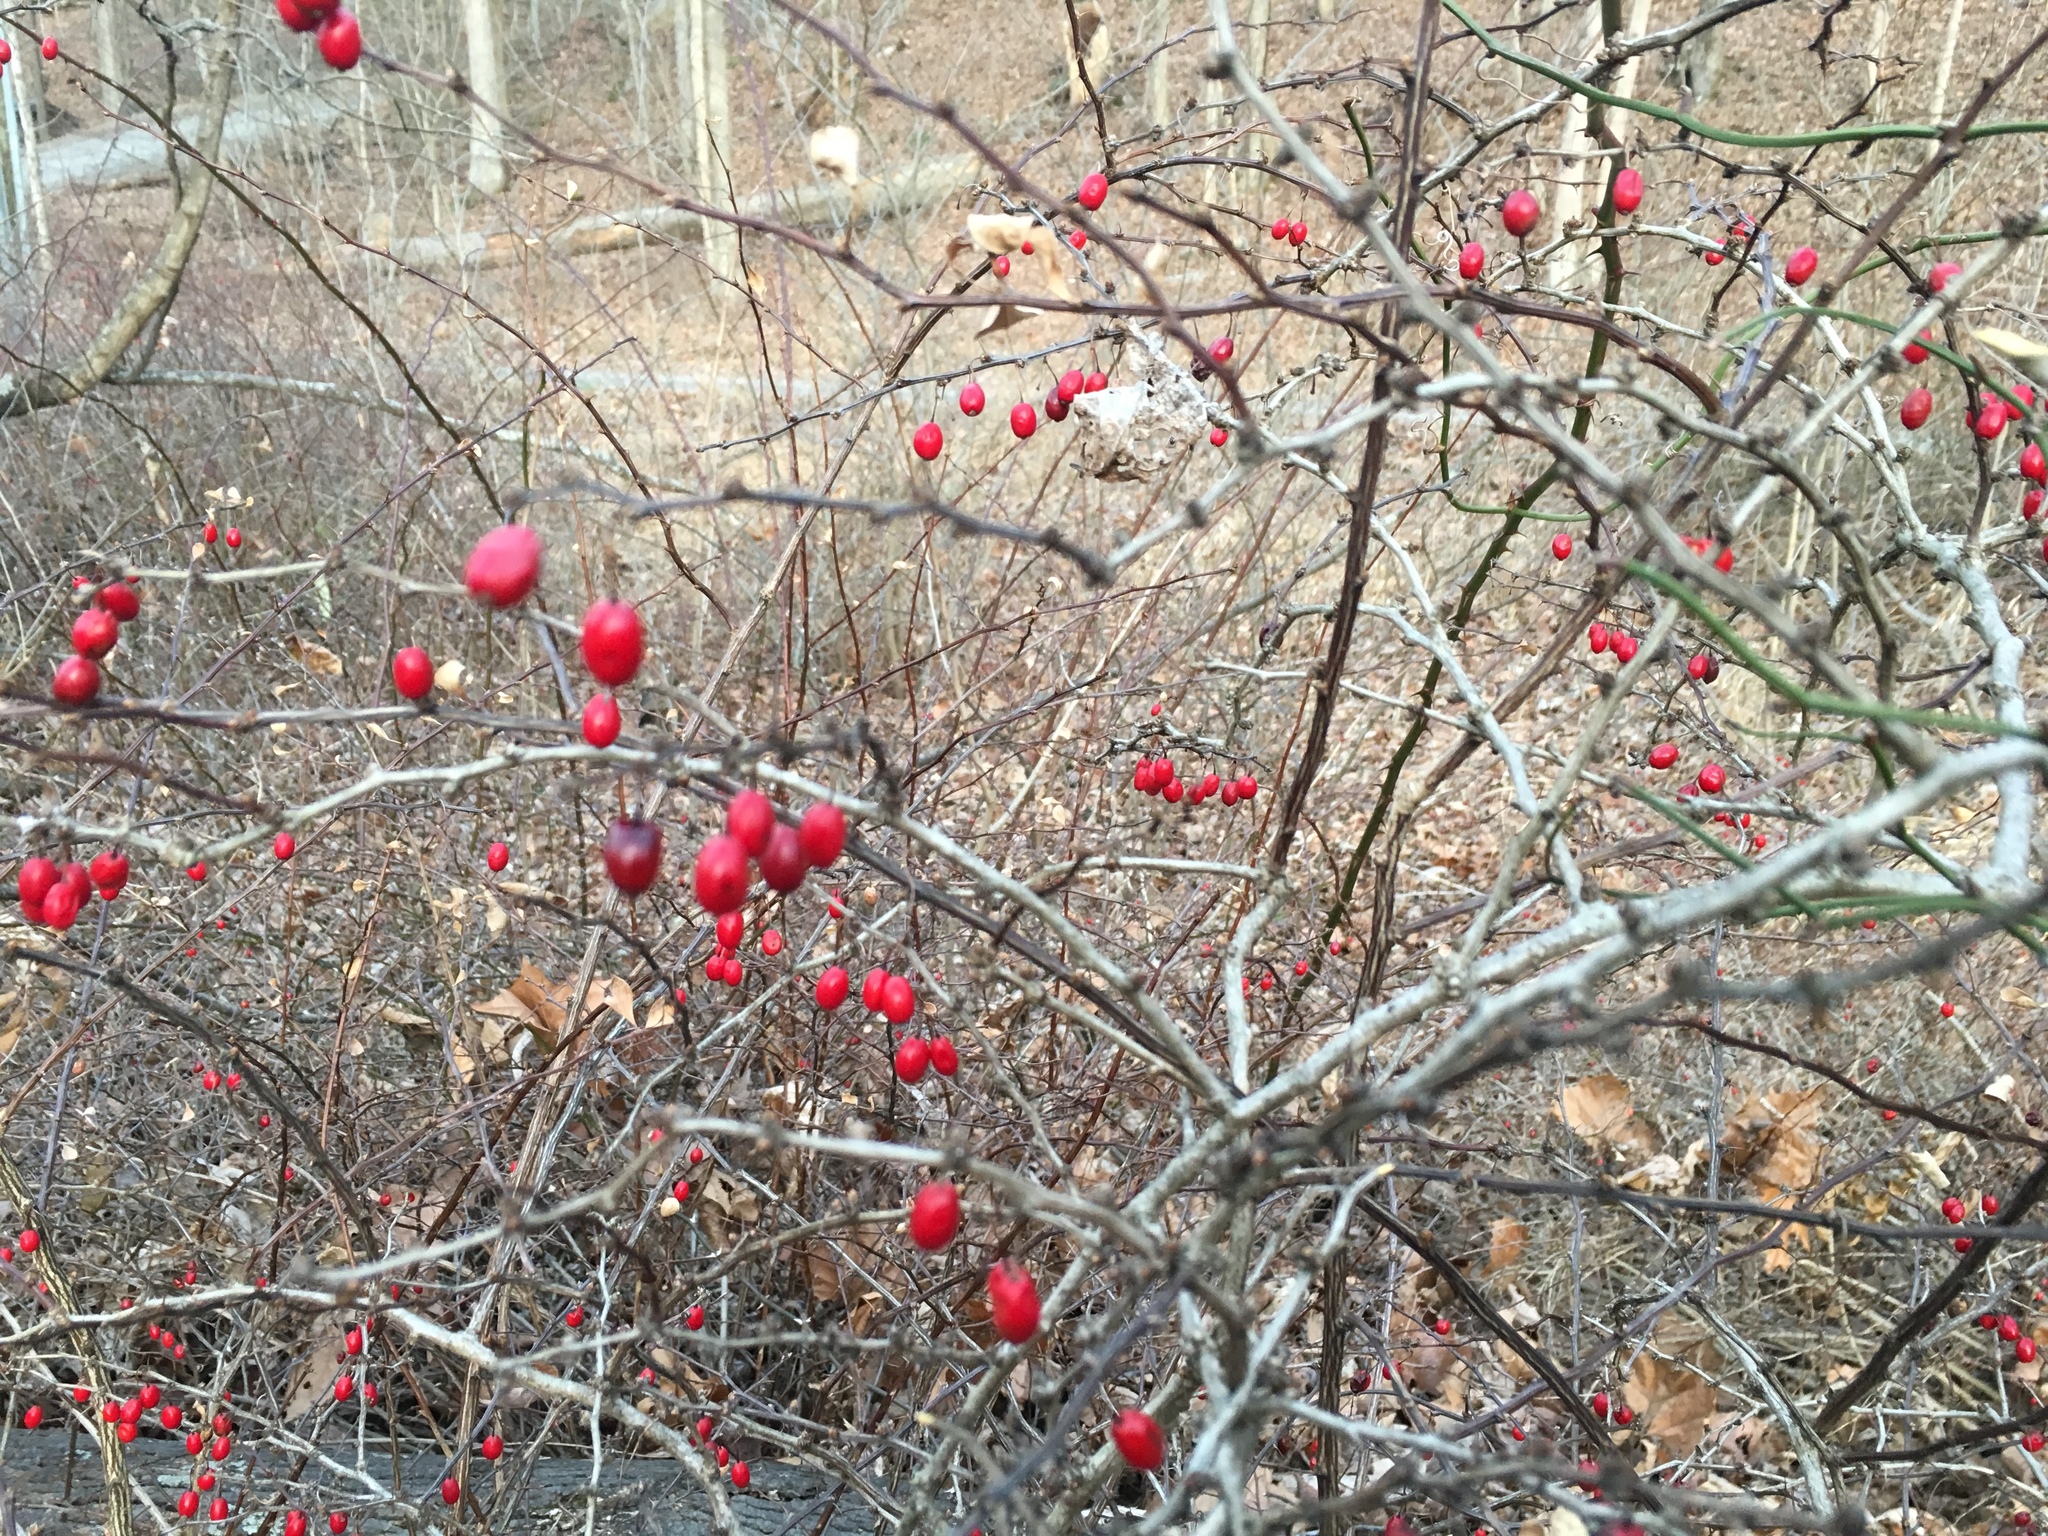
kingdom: Plantae
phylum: Tracheophyta
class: Magnoliopsida
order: Ranunculales
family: Berberidaceae
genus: Berberis
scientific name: Berberis thunbergii
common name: Japanese barberry
